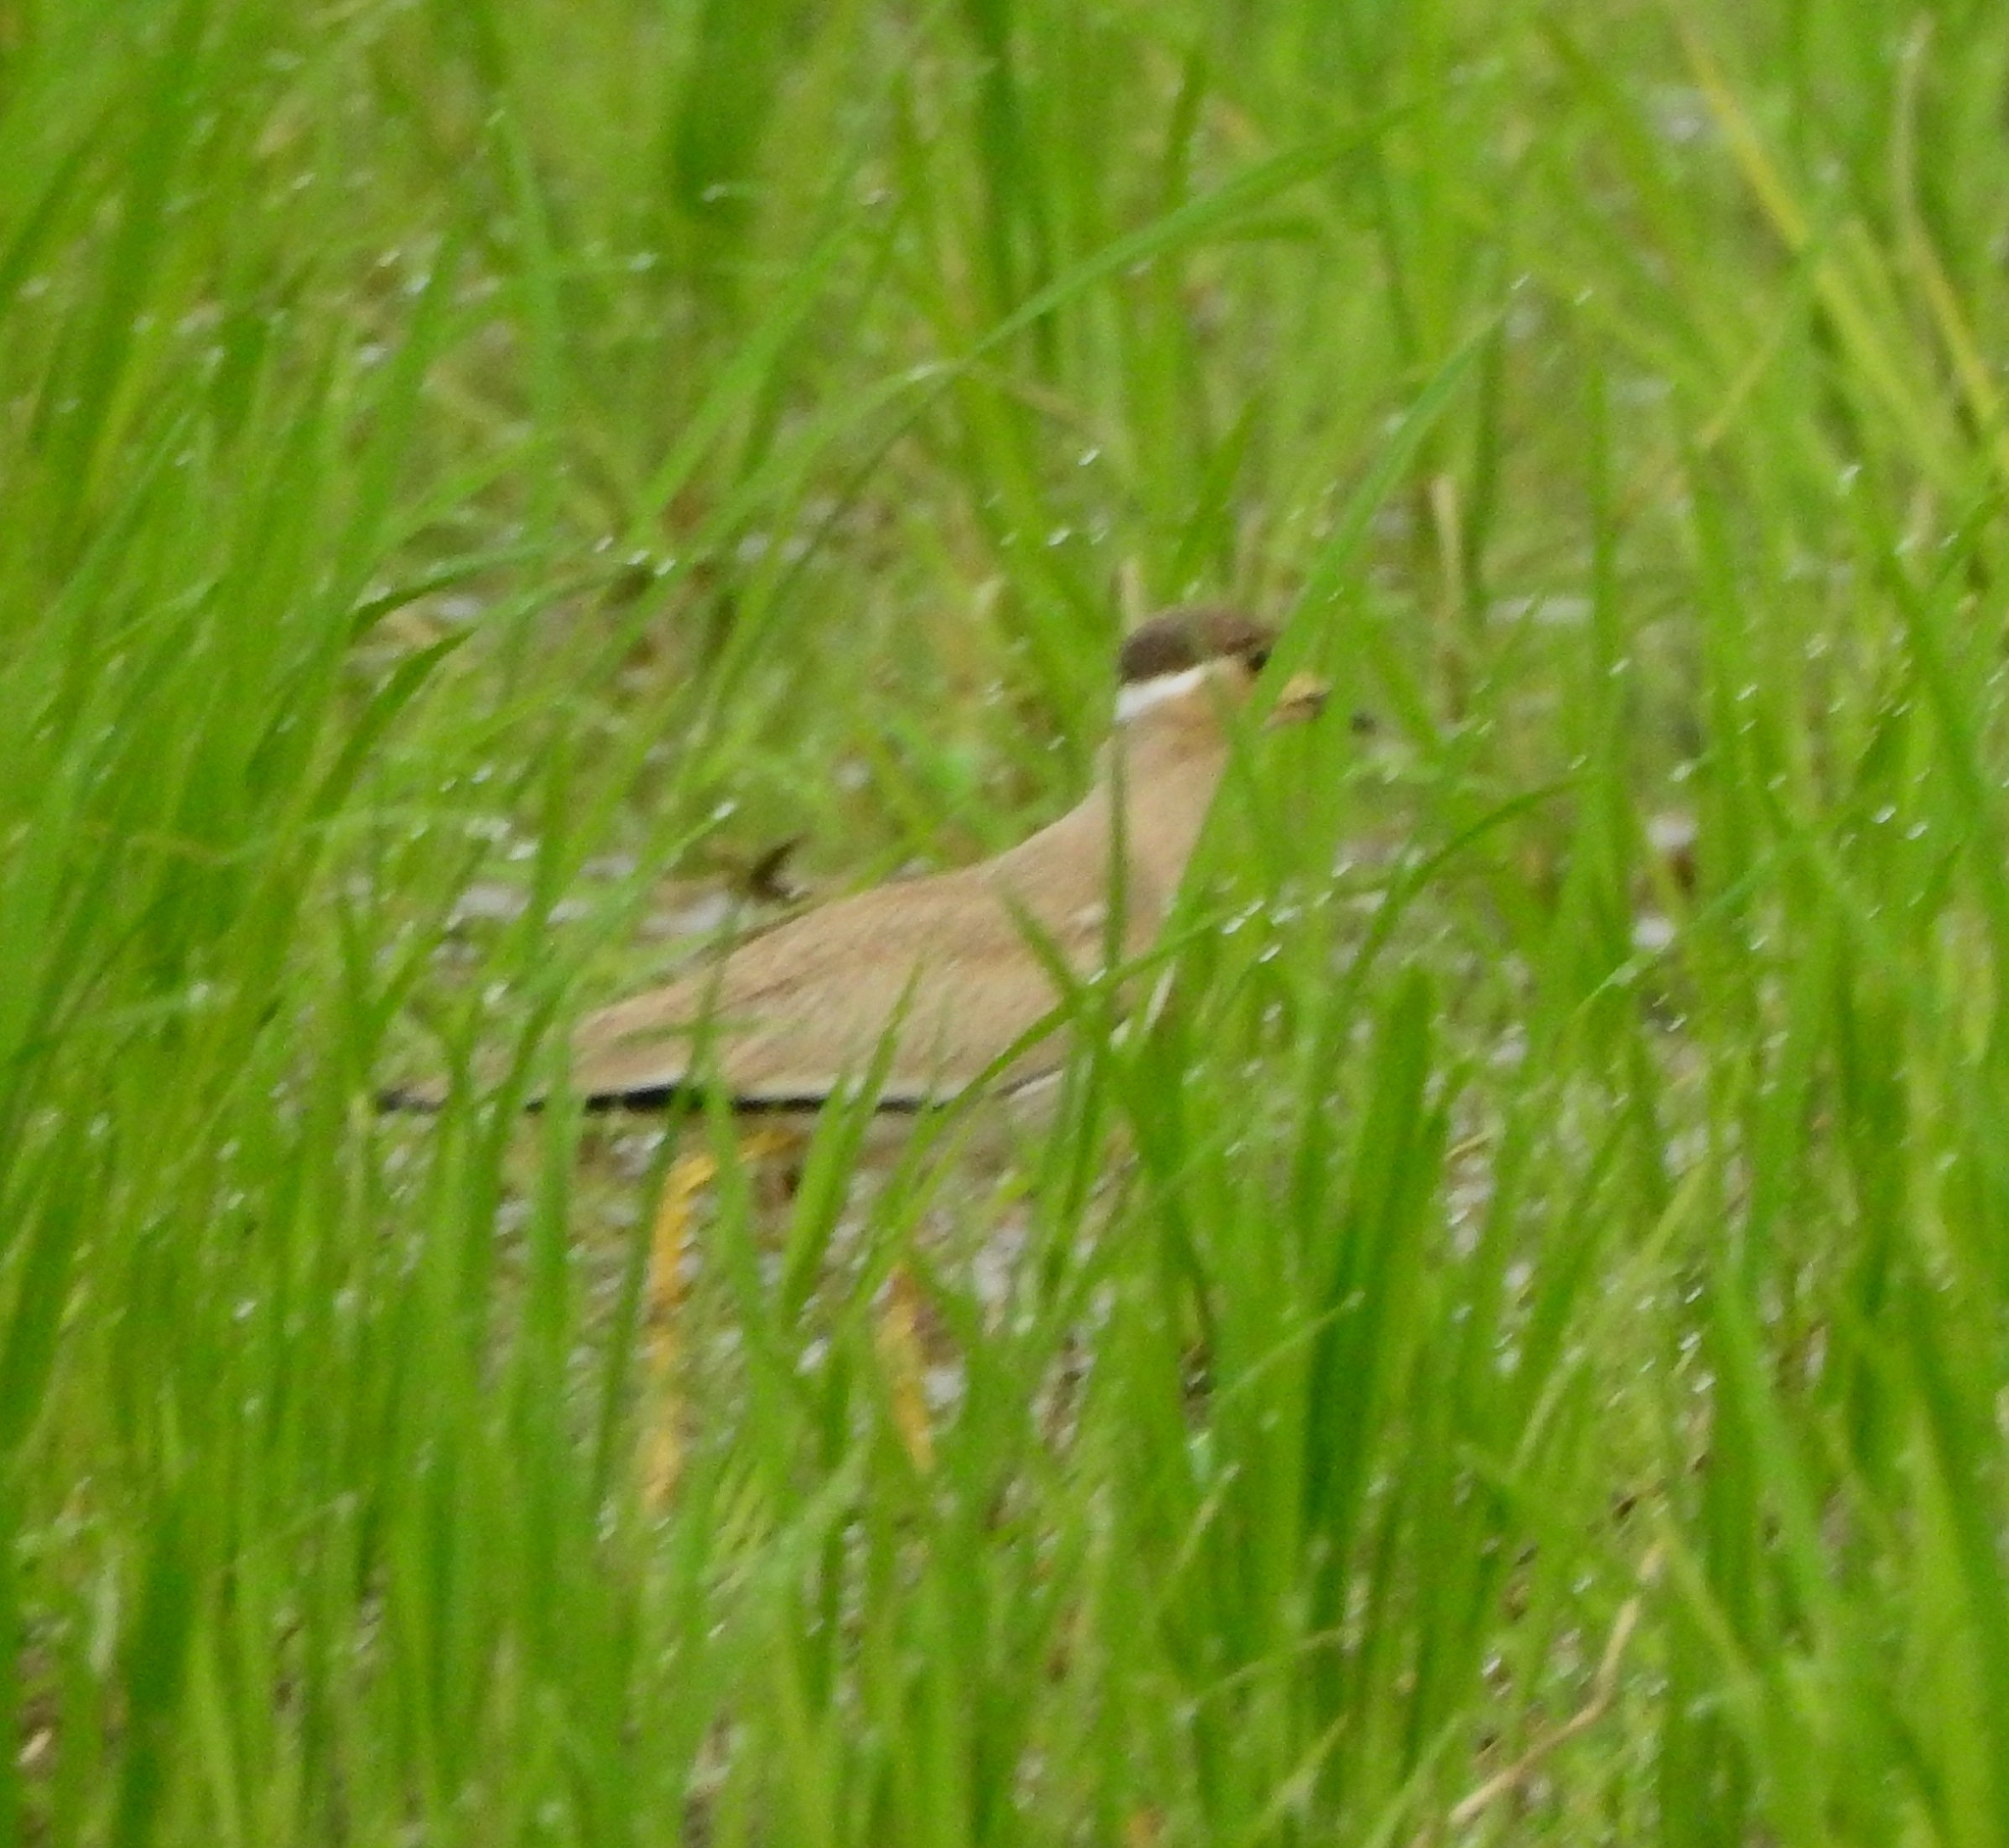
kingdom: Animalia
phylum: Chordata
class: Aves
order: Charadriiformes
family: Charadriidae
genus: Vanellus
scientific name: Vanellus malabaricus
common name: Yellow-wattled lapwing
